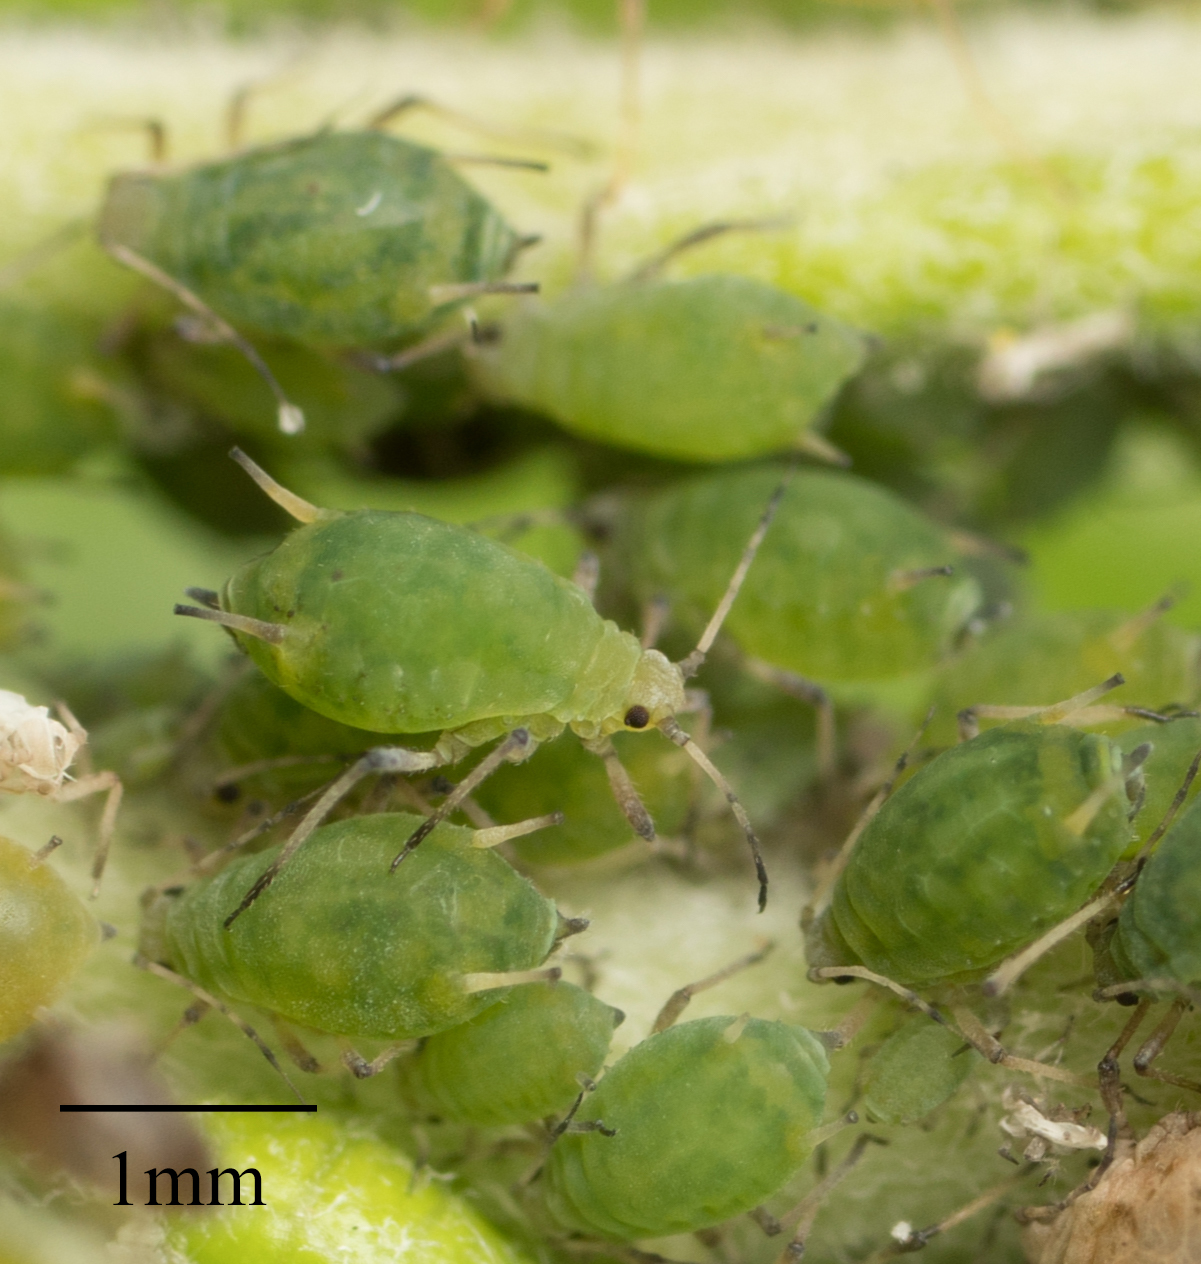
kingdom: Animalia
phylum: Arthropoda
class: Insecta
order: Hemiptera
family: Aphididae
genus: Aphis
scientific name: Aphis farinosa
